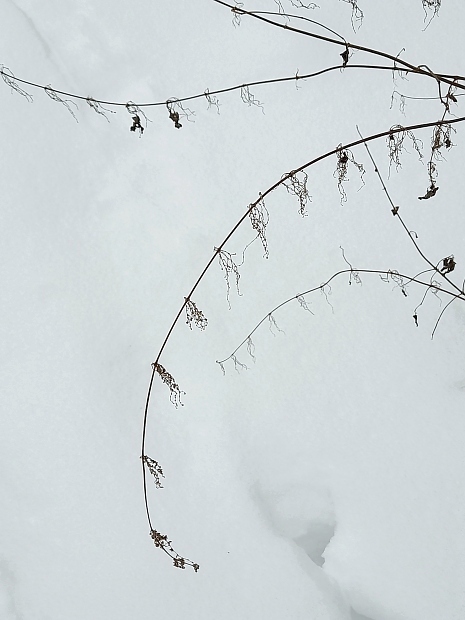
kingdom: Plantae
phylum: Tracheophyta
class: Magnoliopsida
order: Rosales
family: Urticaceae
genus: Urtica
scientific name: Urtica dioica
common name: Common nettle
